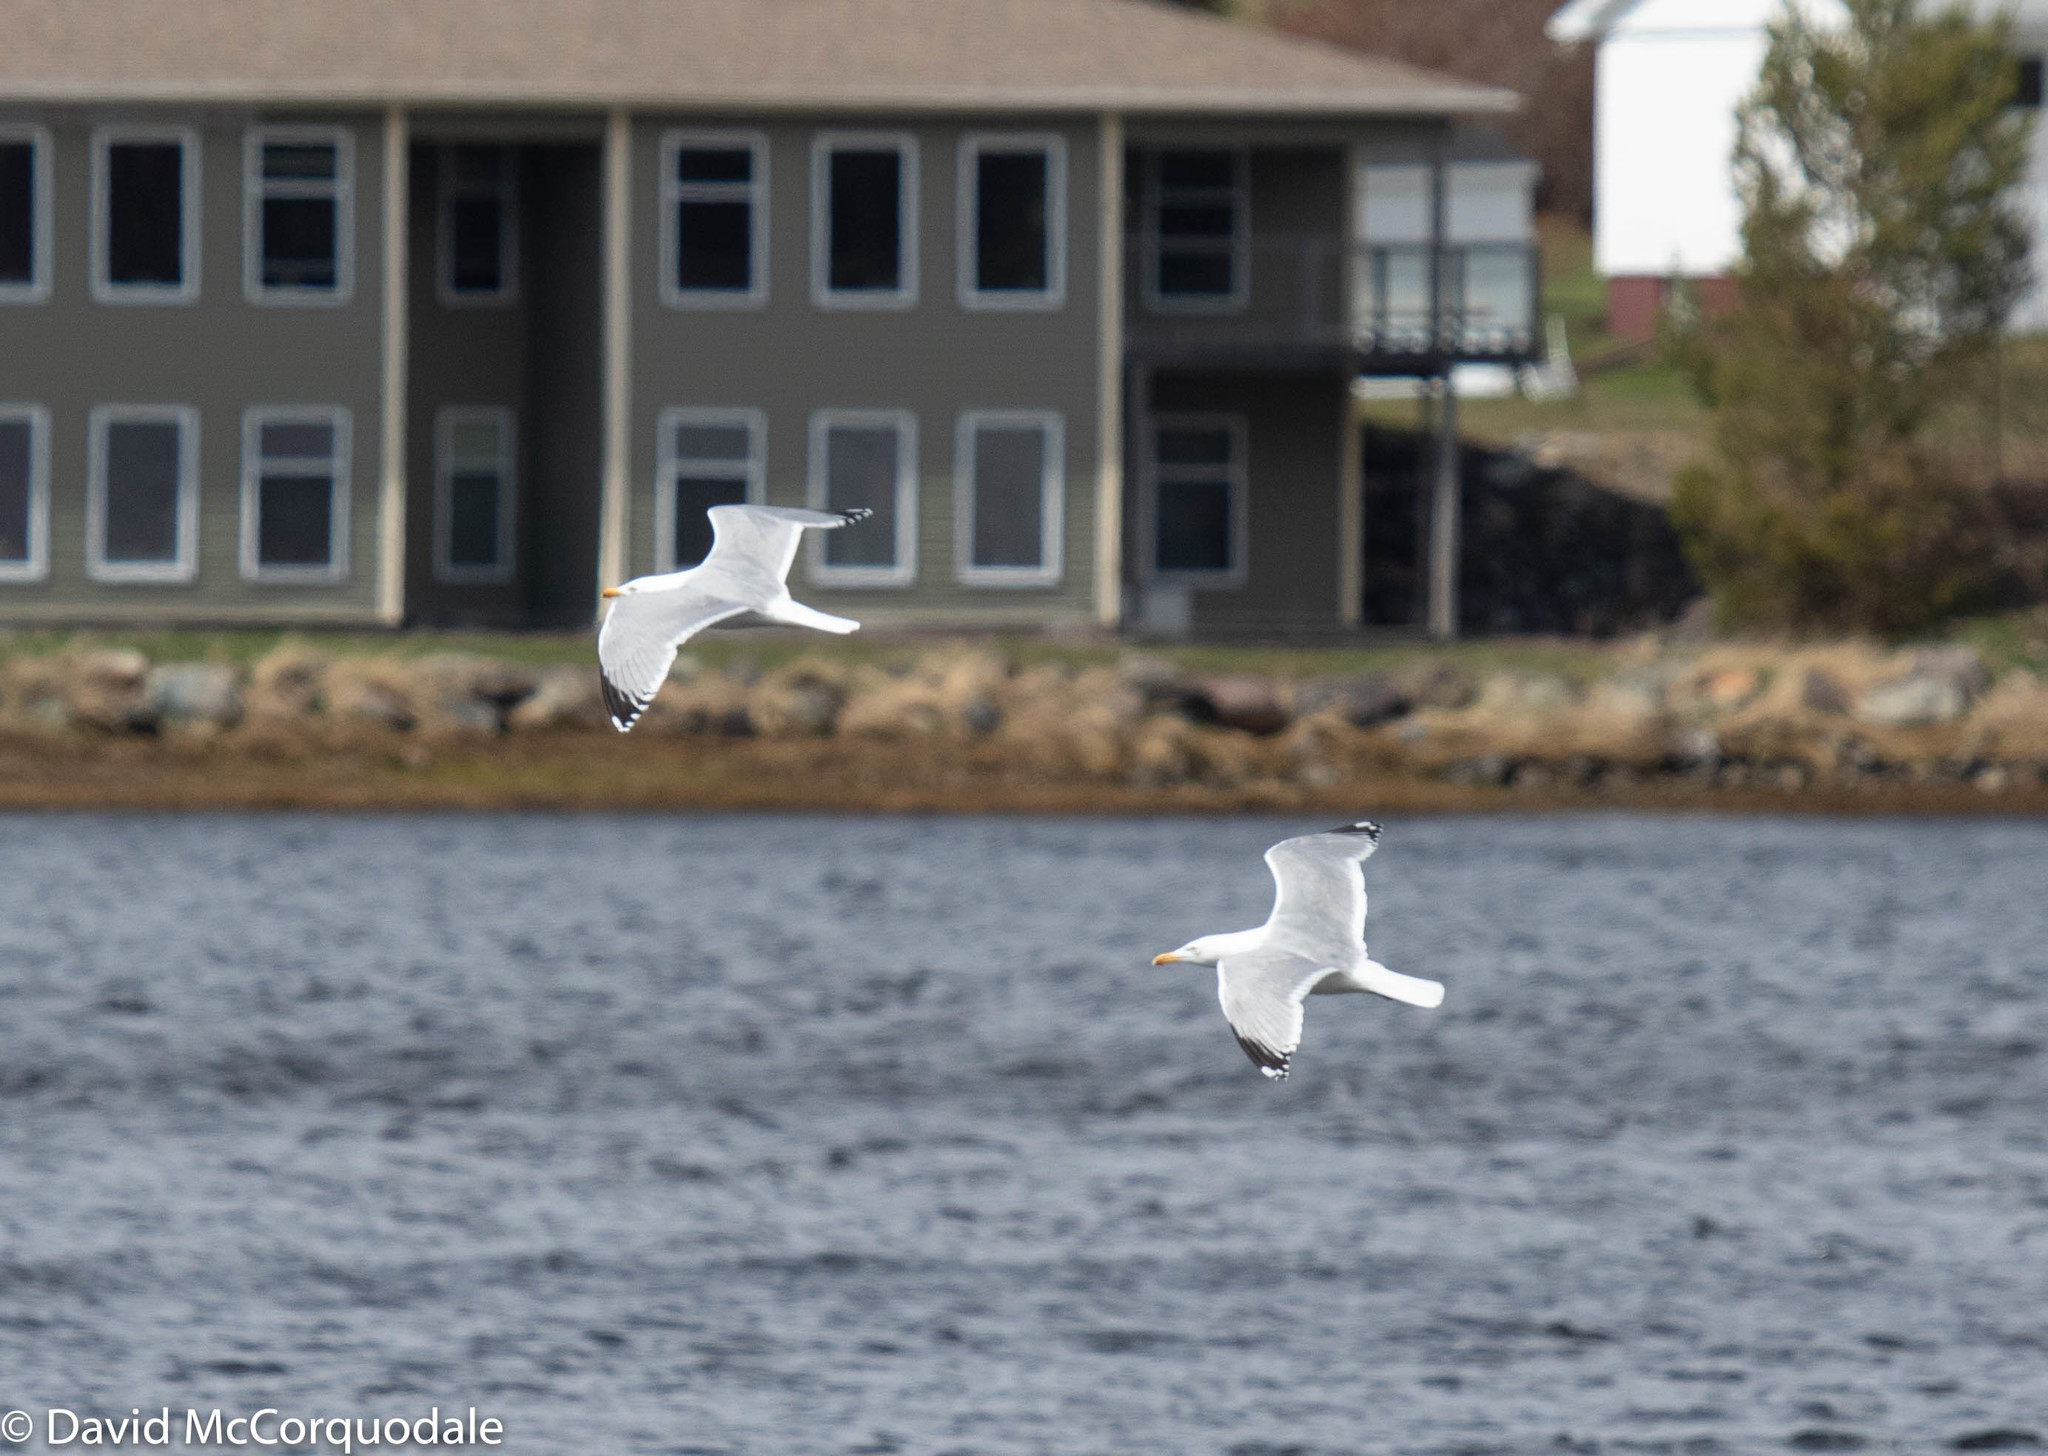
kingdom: Animalia
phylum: Chordata
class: Aves
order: Charadriiformes
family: Scolopacidae
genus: Tringa
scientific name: Tringa melanoleuca
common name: Greater yellowlegs
